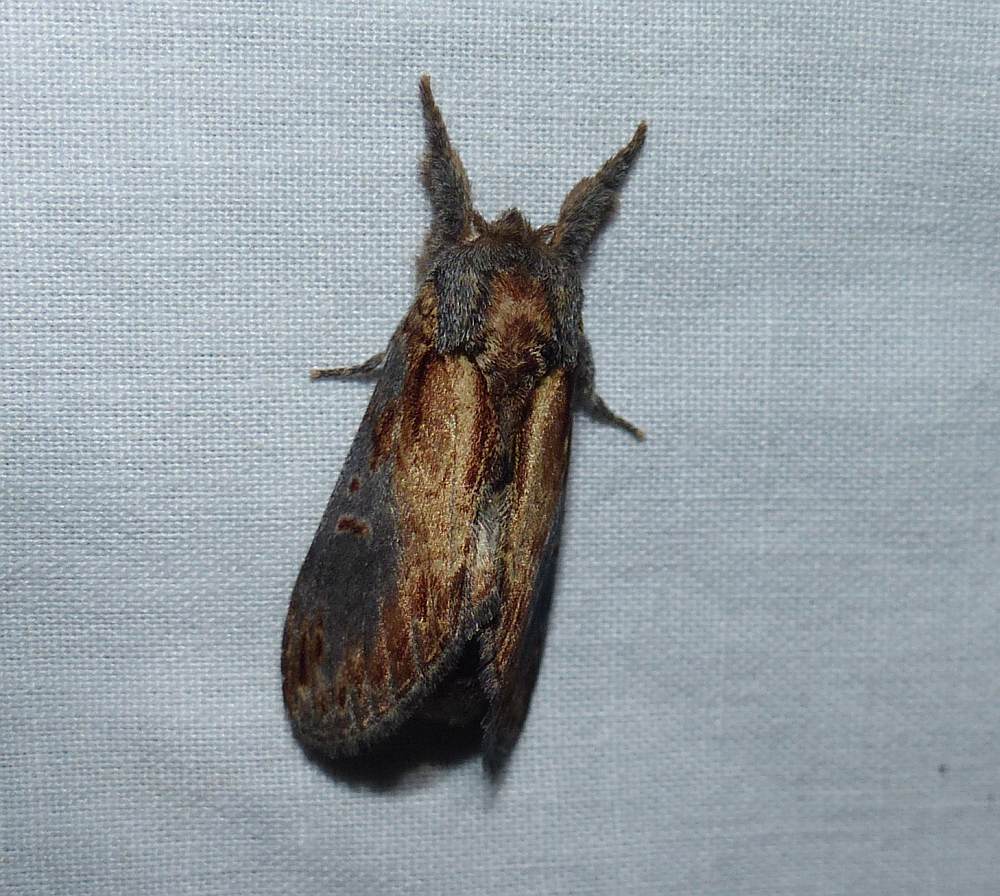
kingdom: Animalia
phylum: Arthropoda
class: Insecta
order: Lepidoptera
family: Notodontidae
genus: Notodonta
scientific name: Notodonta scitipennis
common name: Finned-willow prominent moth
